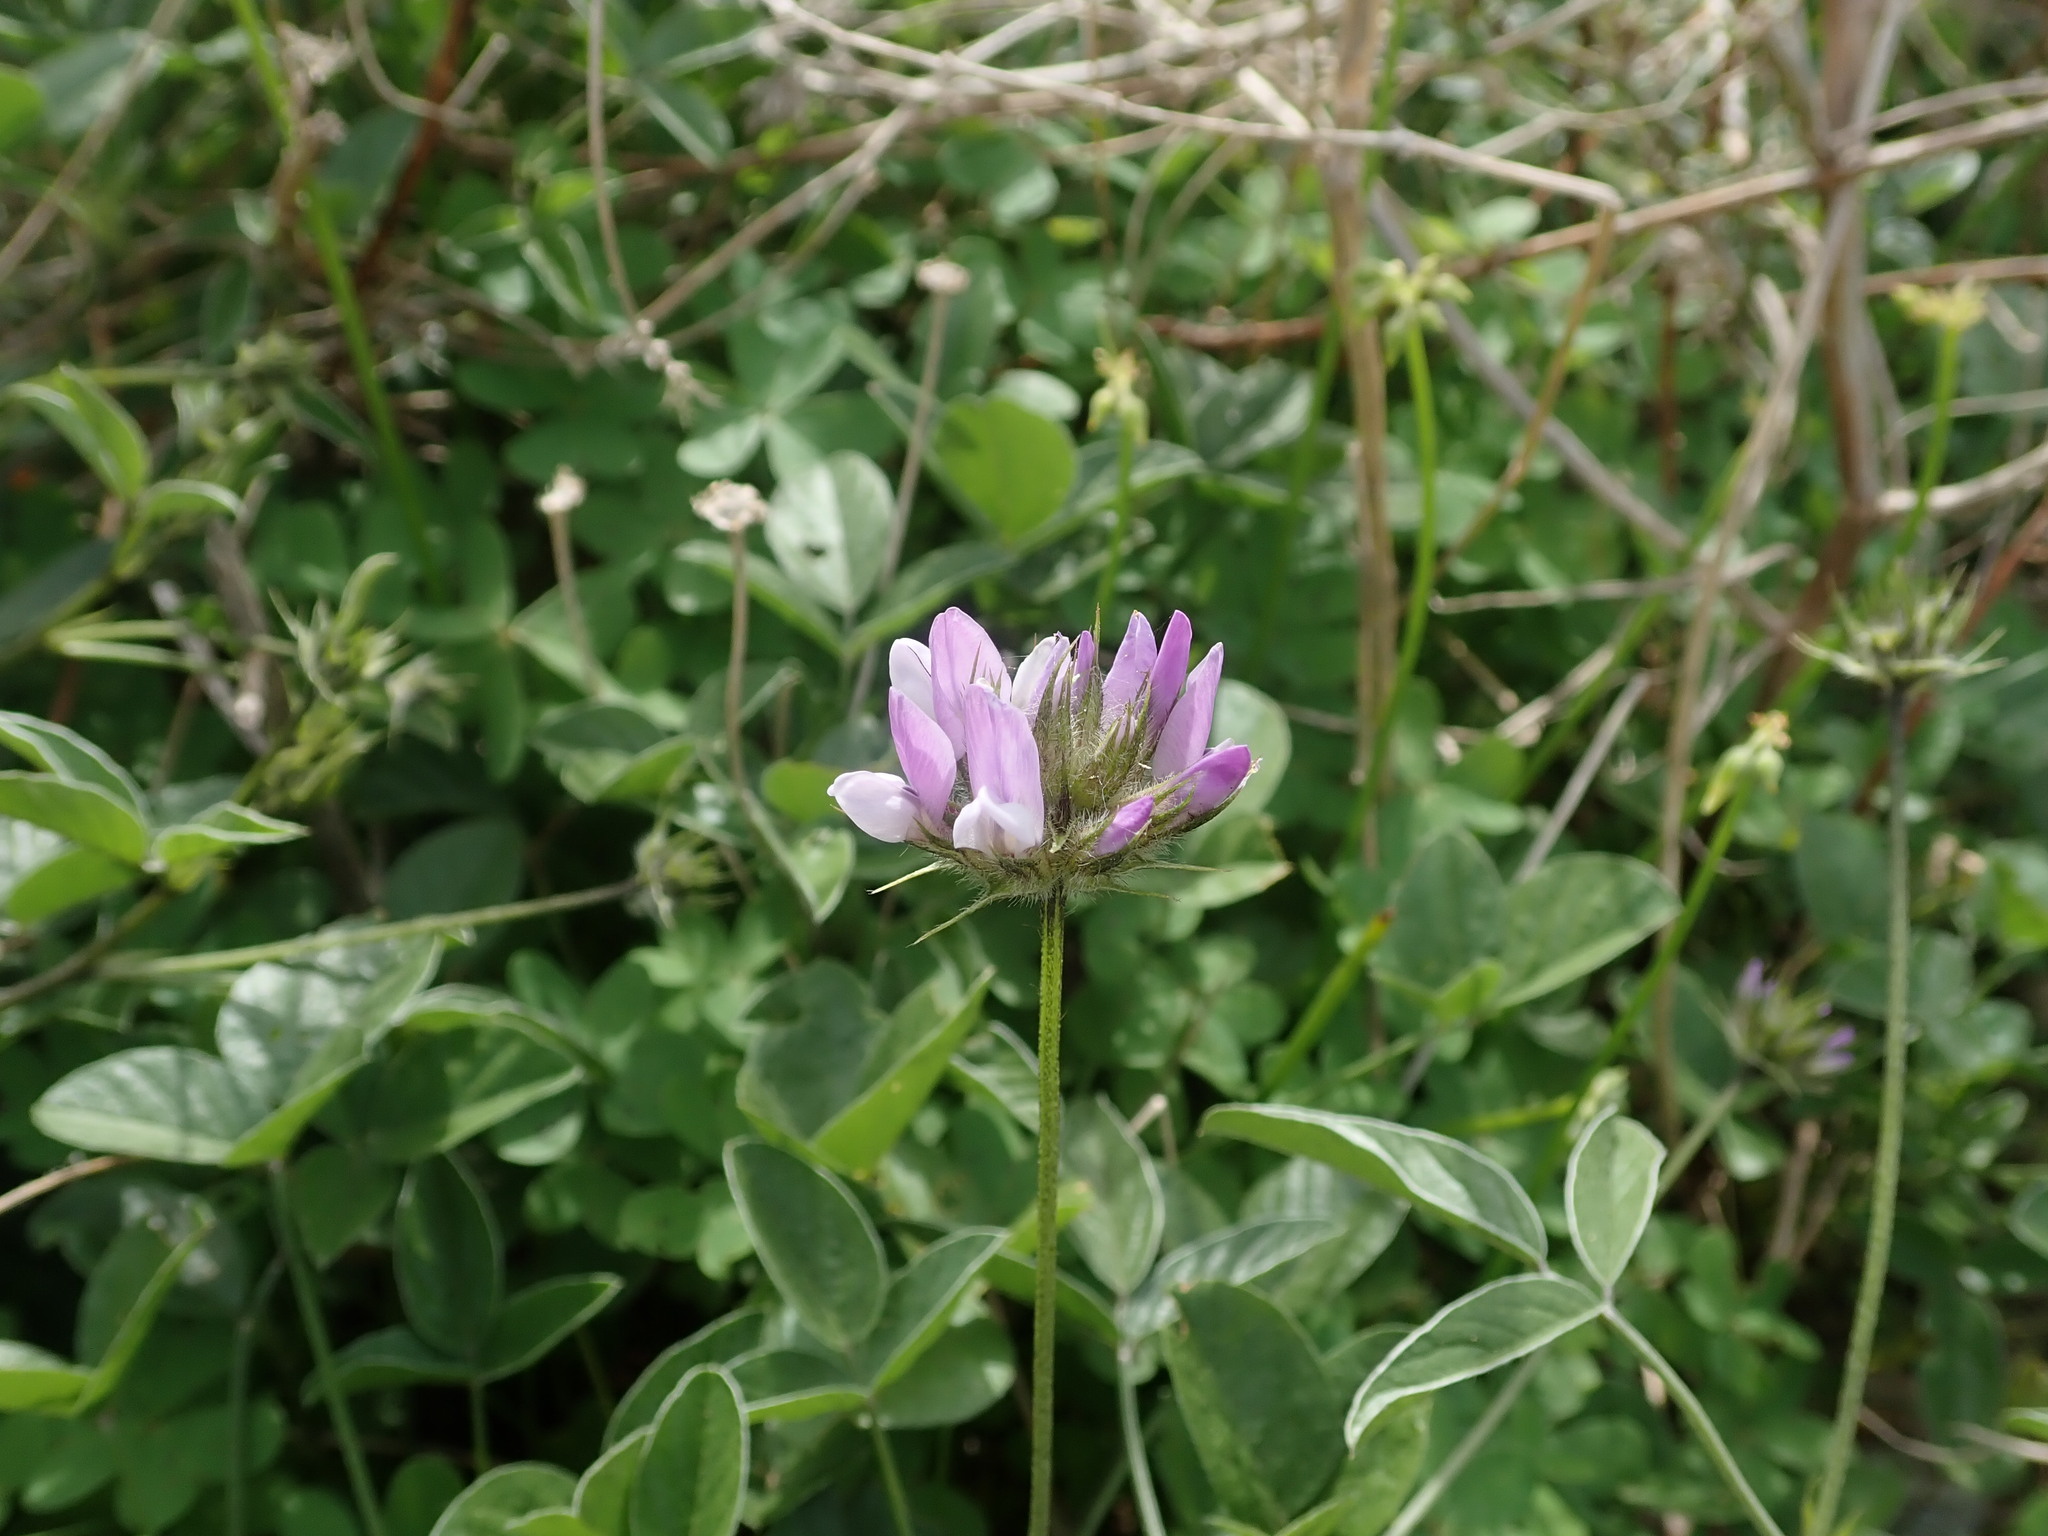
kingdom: Plantae
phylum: Tracheophyta
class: Magnoliopsida
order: Fabales
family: Fabaceae
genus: Bituminaria
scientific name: Bituminaria bituminosa
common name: Arabian pea
